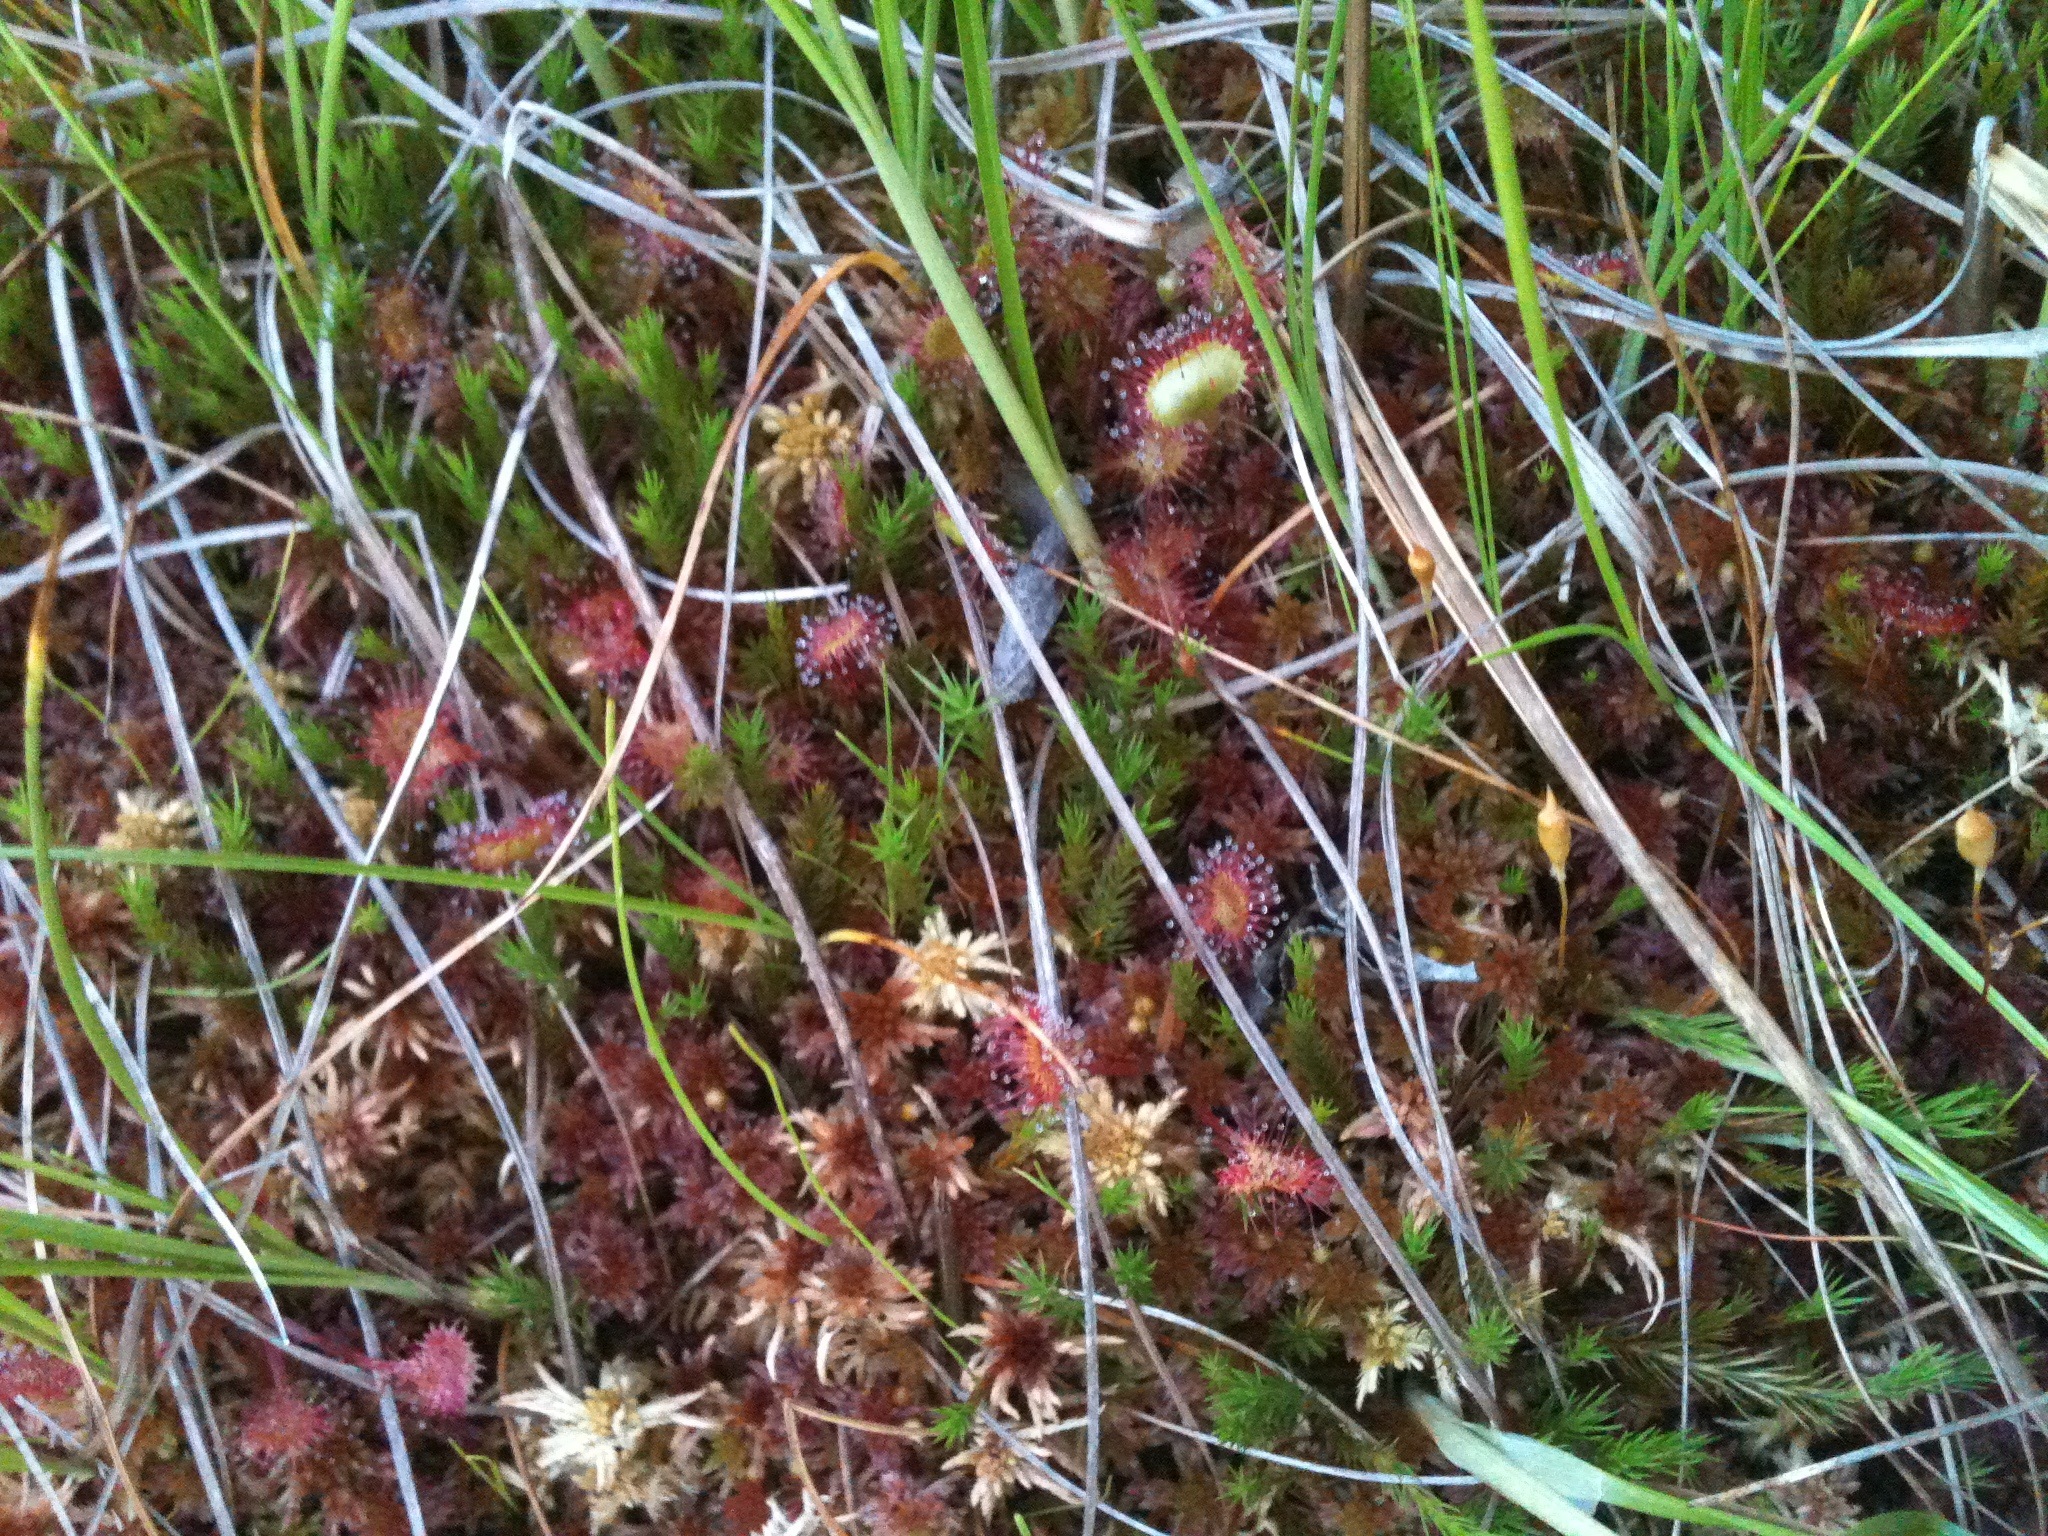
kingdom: Plantae
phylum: Tracheophyta
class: Magnoliopsida
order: Caryophyllales
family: Droseraceae
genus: Drosera
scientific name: Drosera rotundifolia
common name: Round-leaved sundew
